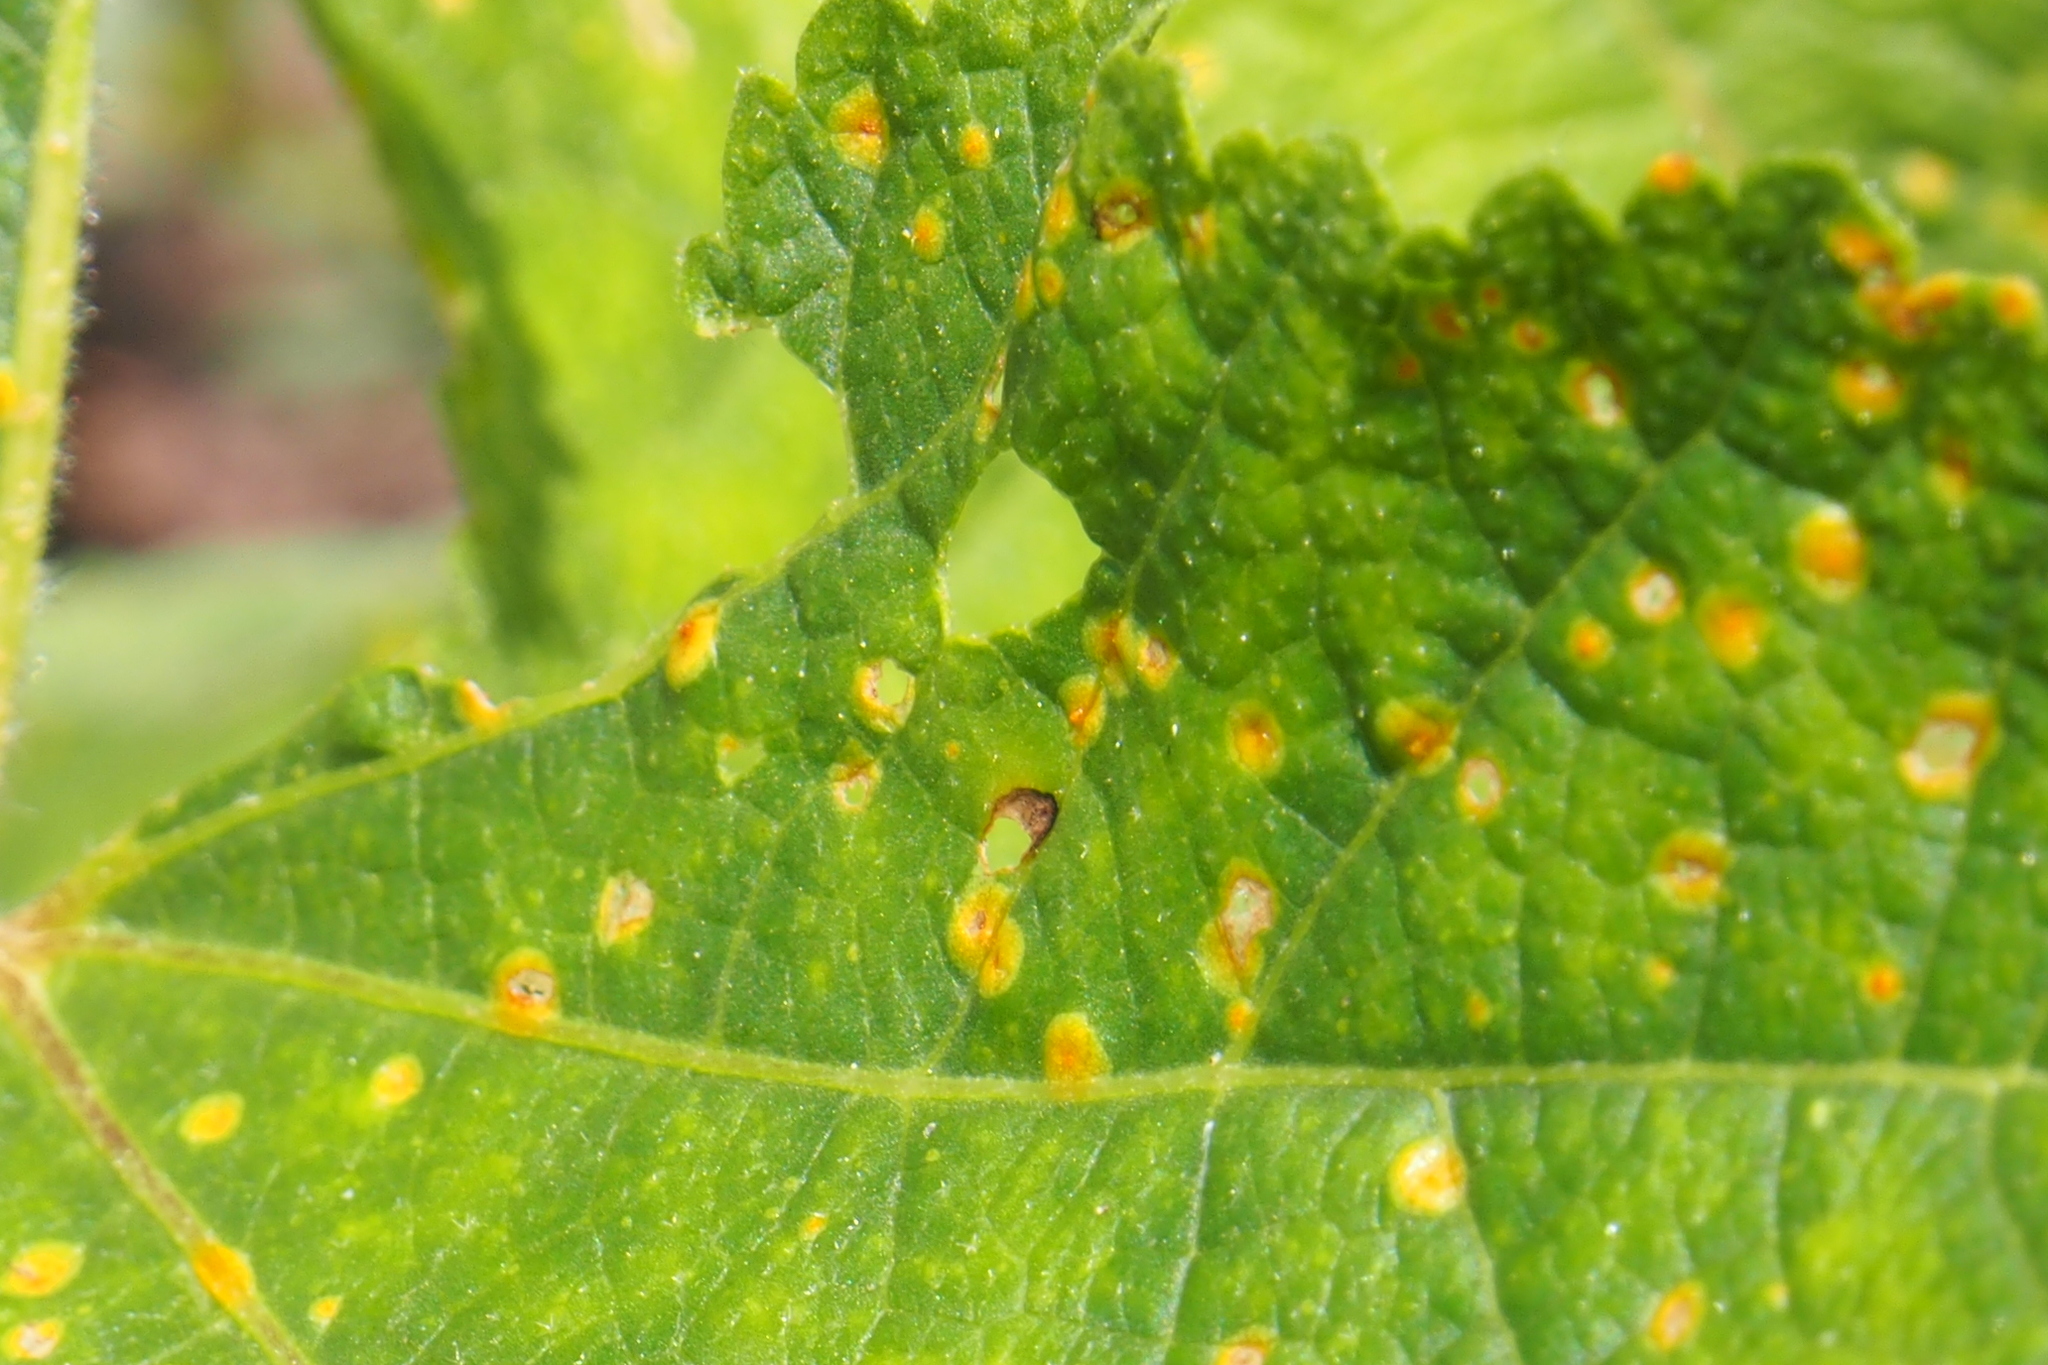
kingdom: Fungi
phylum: Basidiomycota
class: Pucciniomycetes
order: Pucciniales
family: Pucciniaceae
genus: Puccinia
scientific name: Puccinia malvacearum
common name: Hollyhock rust
